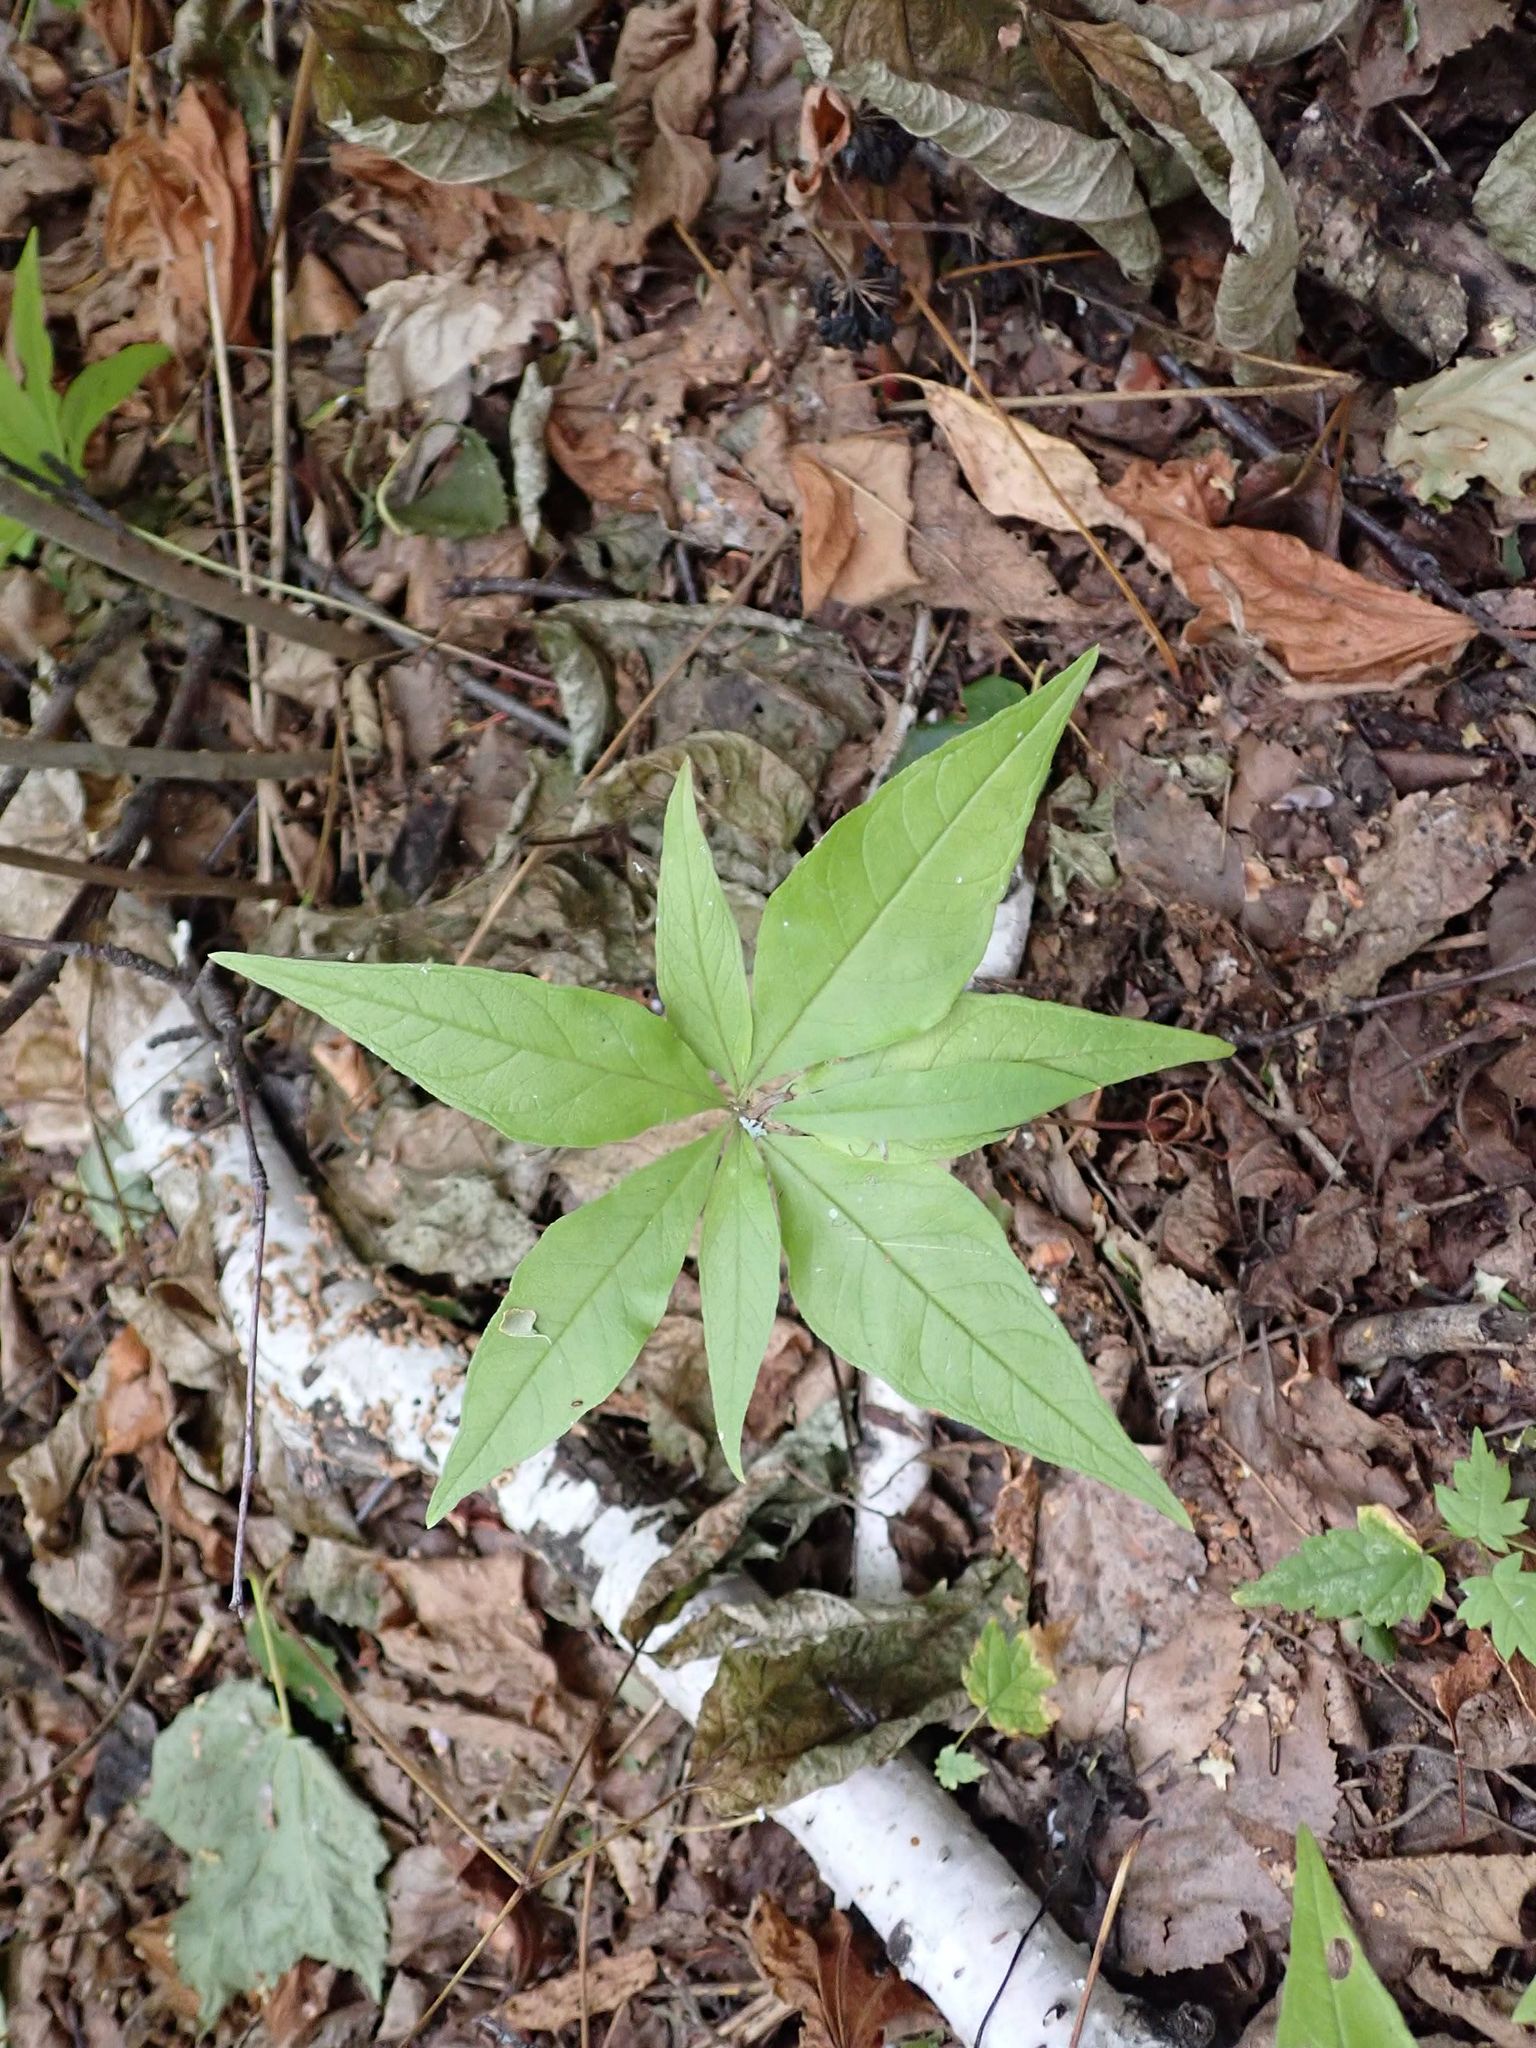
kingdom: Plantae
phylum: Tracheophyta
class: Magnoliopsida
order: Ericales
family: Primulaceae
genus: Lysimachia
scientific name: Lysimachia borealis
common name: American starflower
